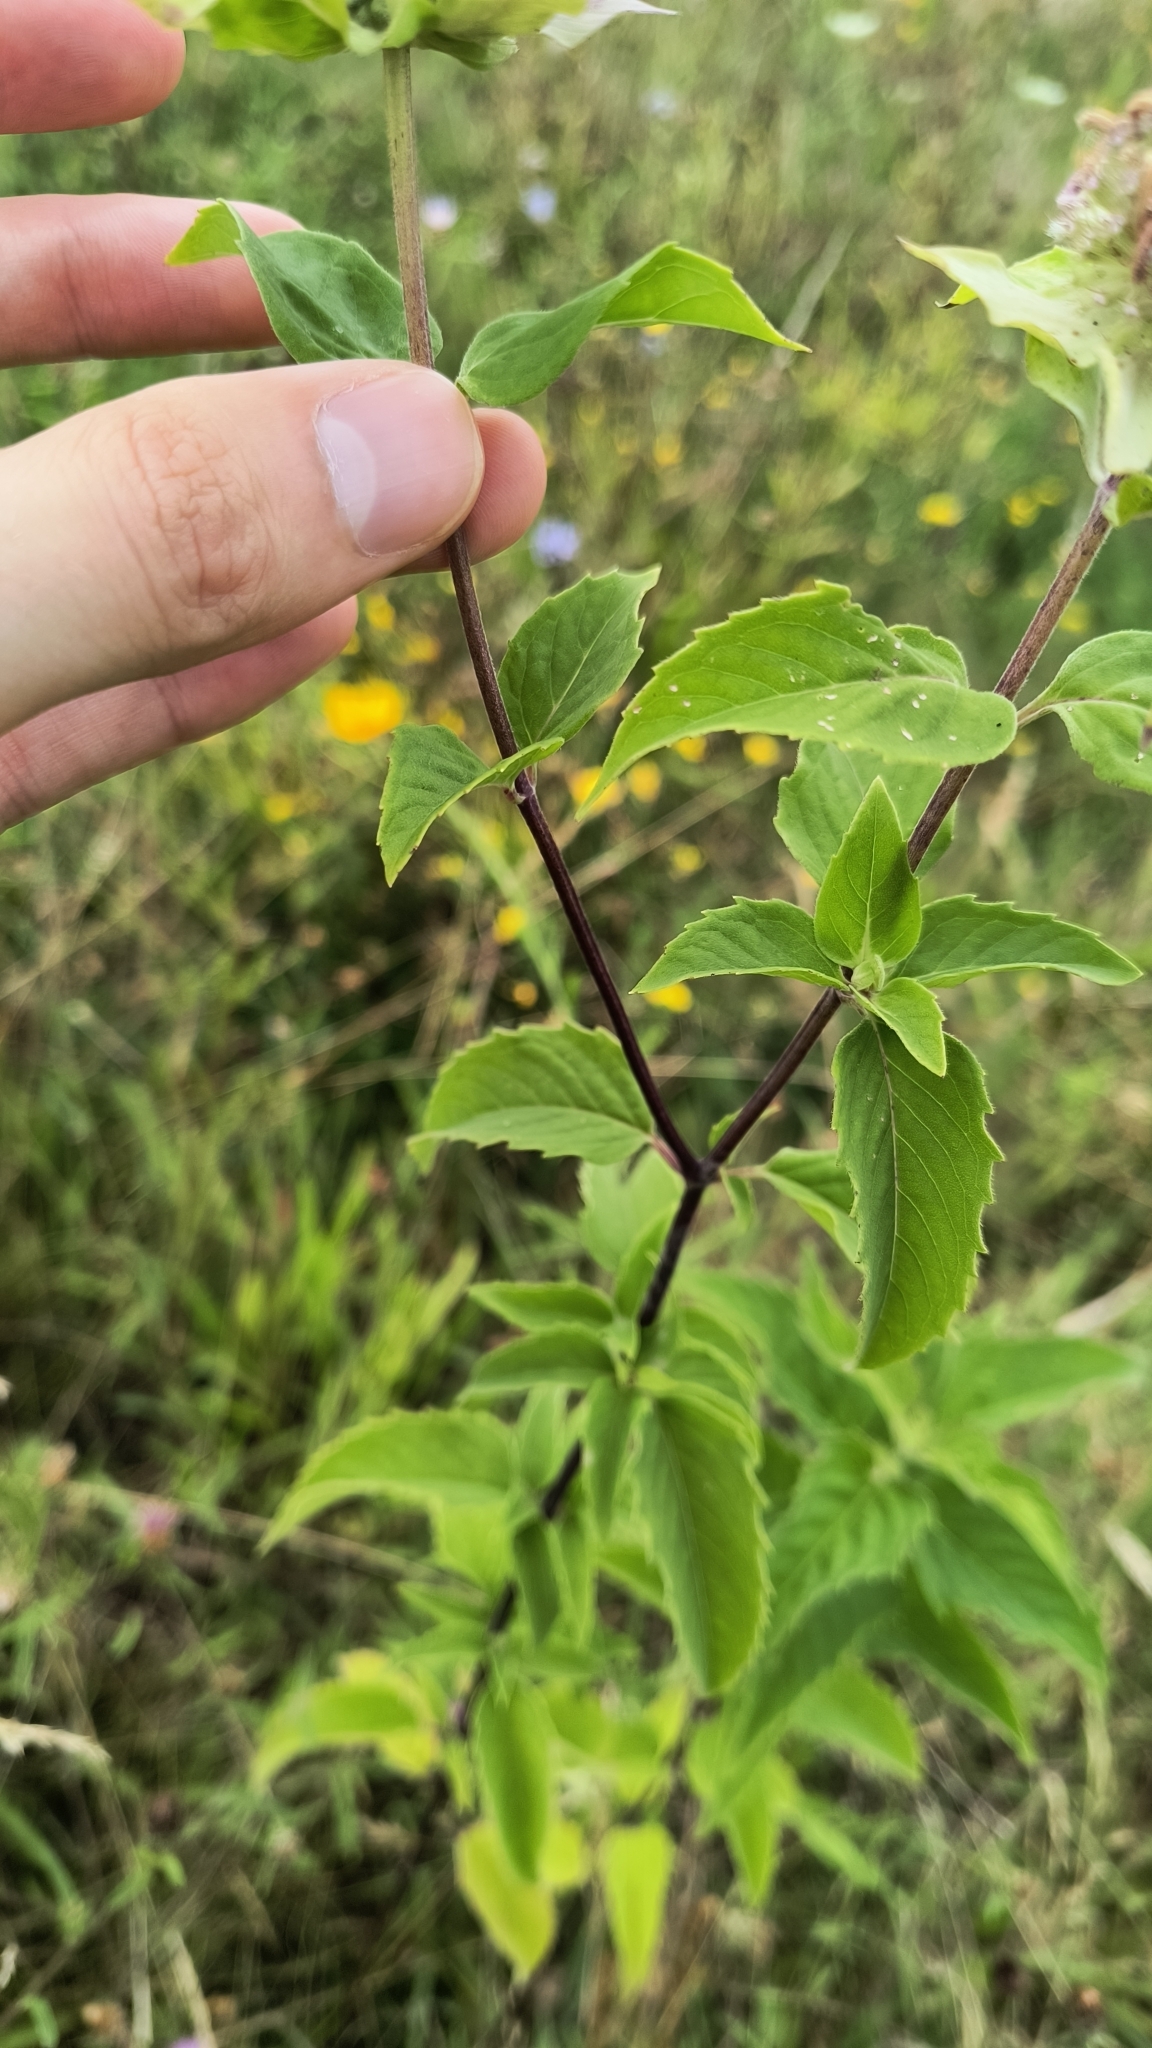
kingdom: Plantae
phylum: Tracheophyta
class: Magnoliopsida
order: Lamiales
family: Lamiaceae
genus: Monarda
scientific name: Monarda fistulosa
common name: Purple beebalm
